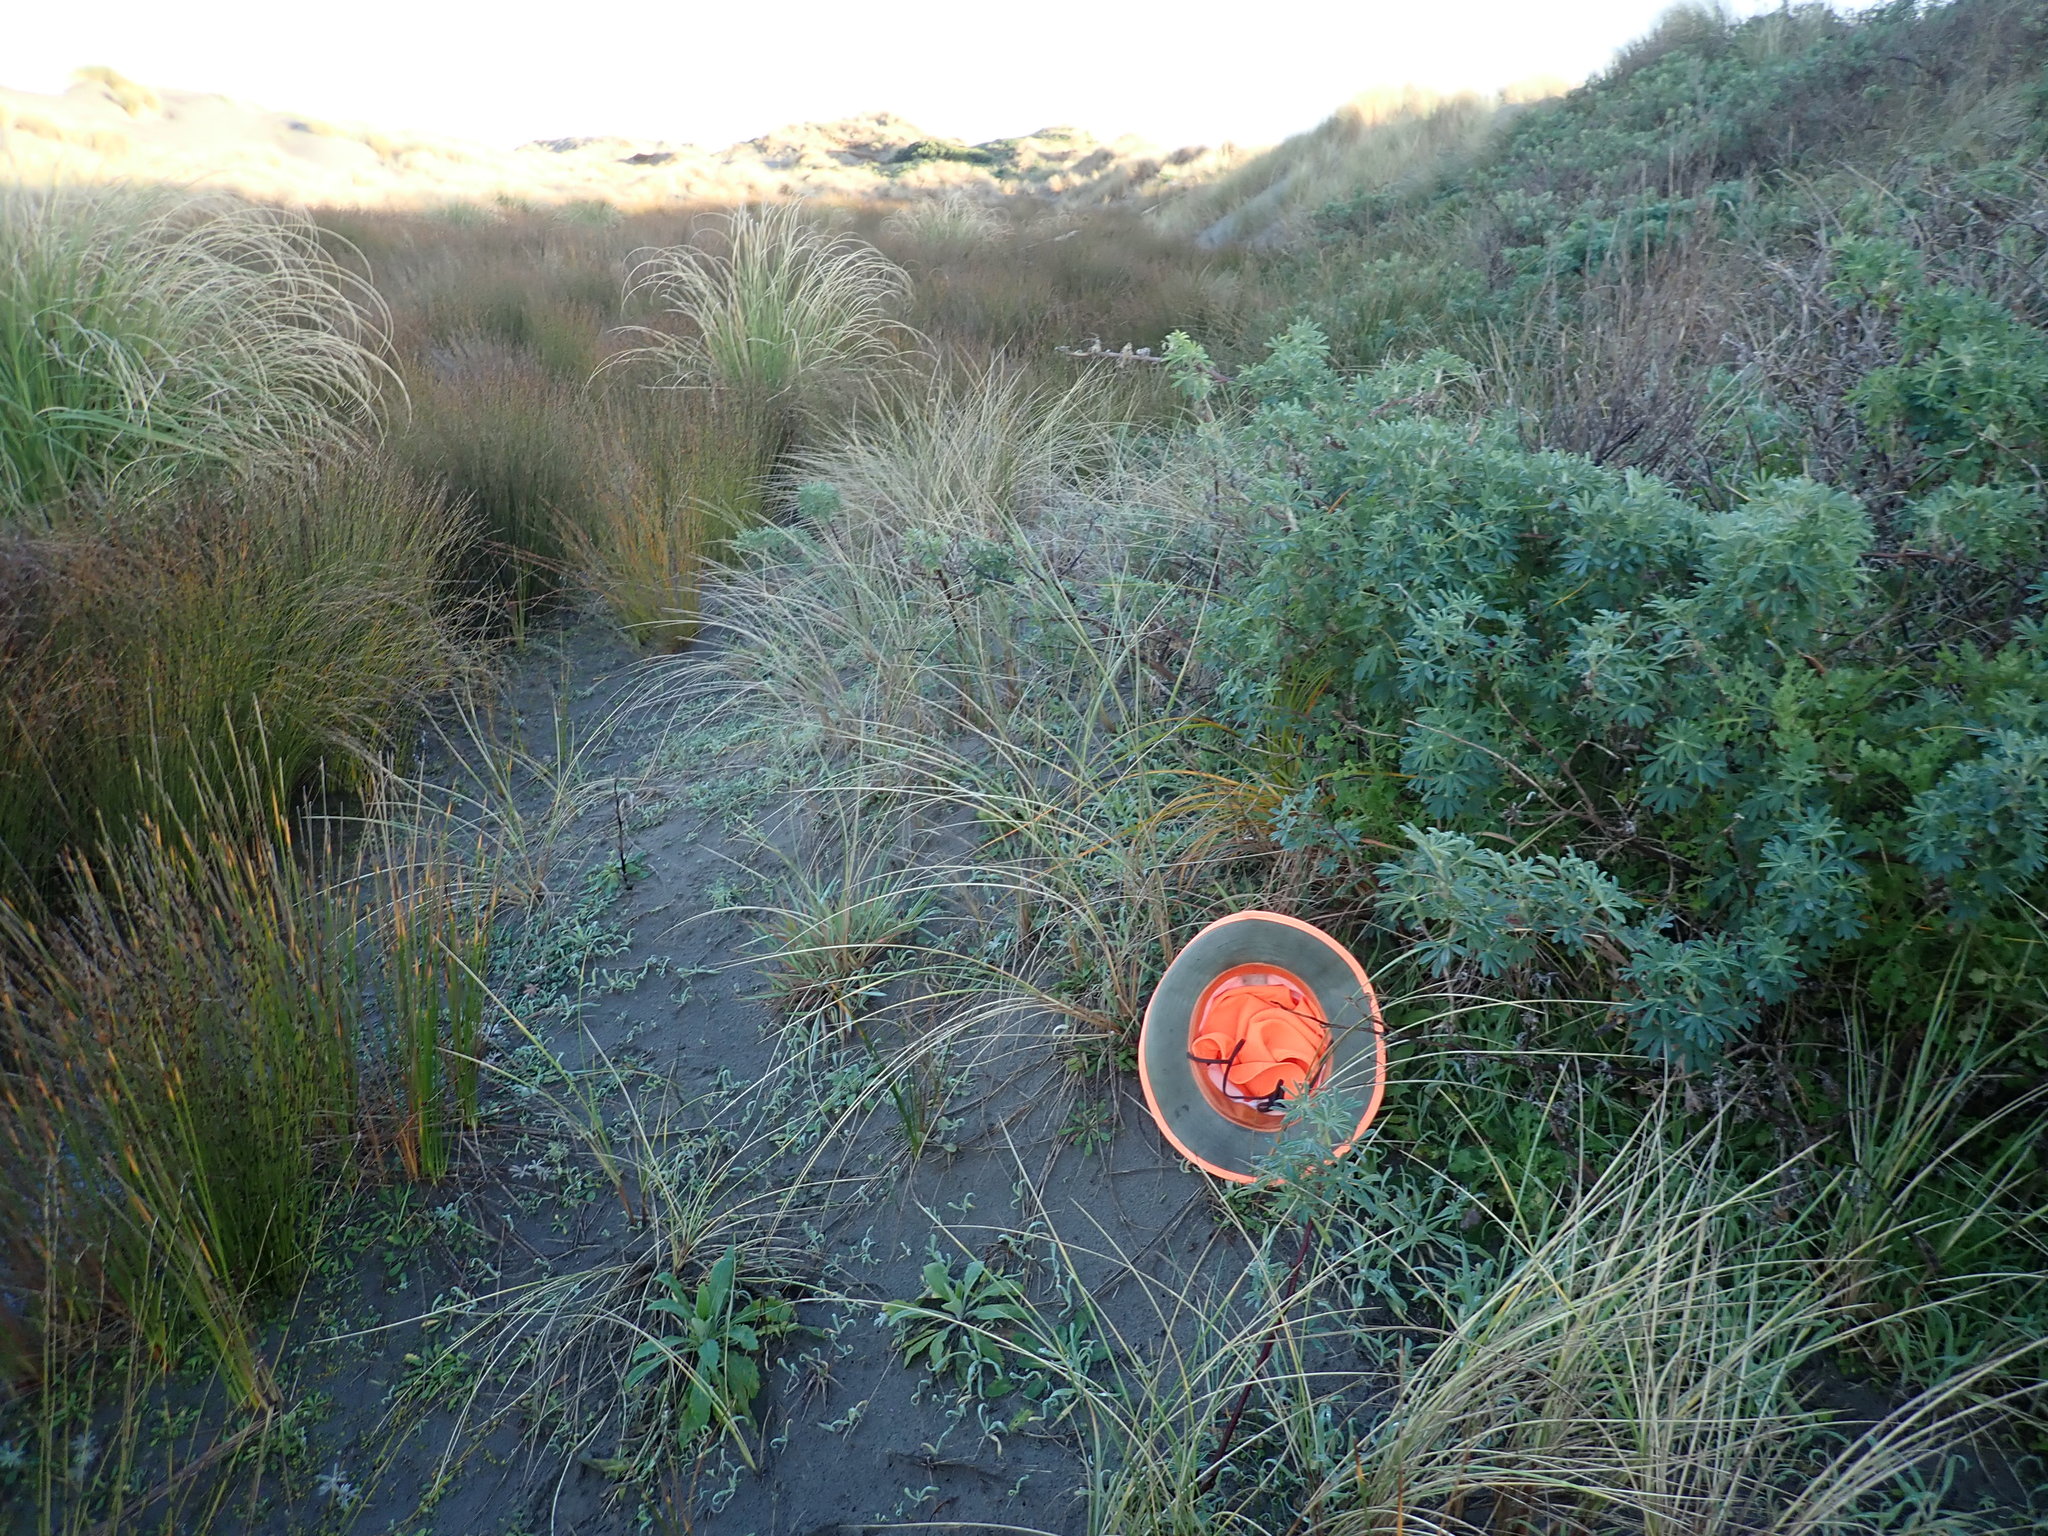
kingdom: Plantae
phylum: Tracheophyta
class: Liliopsida
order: Poales
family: Cyperaceae
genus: Ficinia
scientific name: Ficinia spiralis
